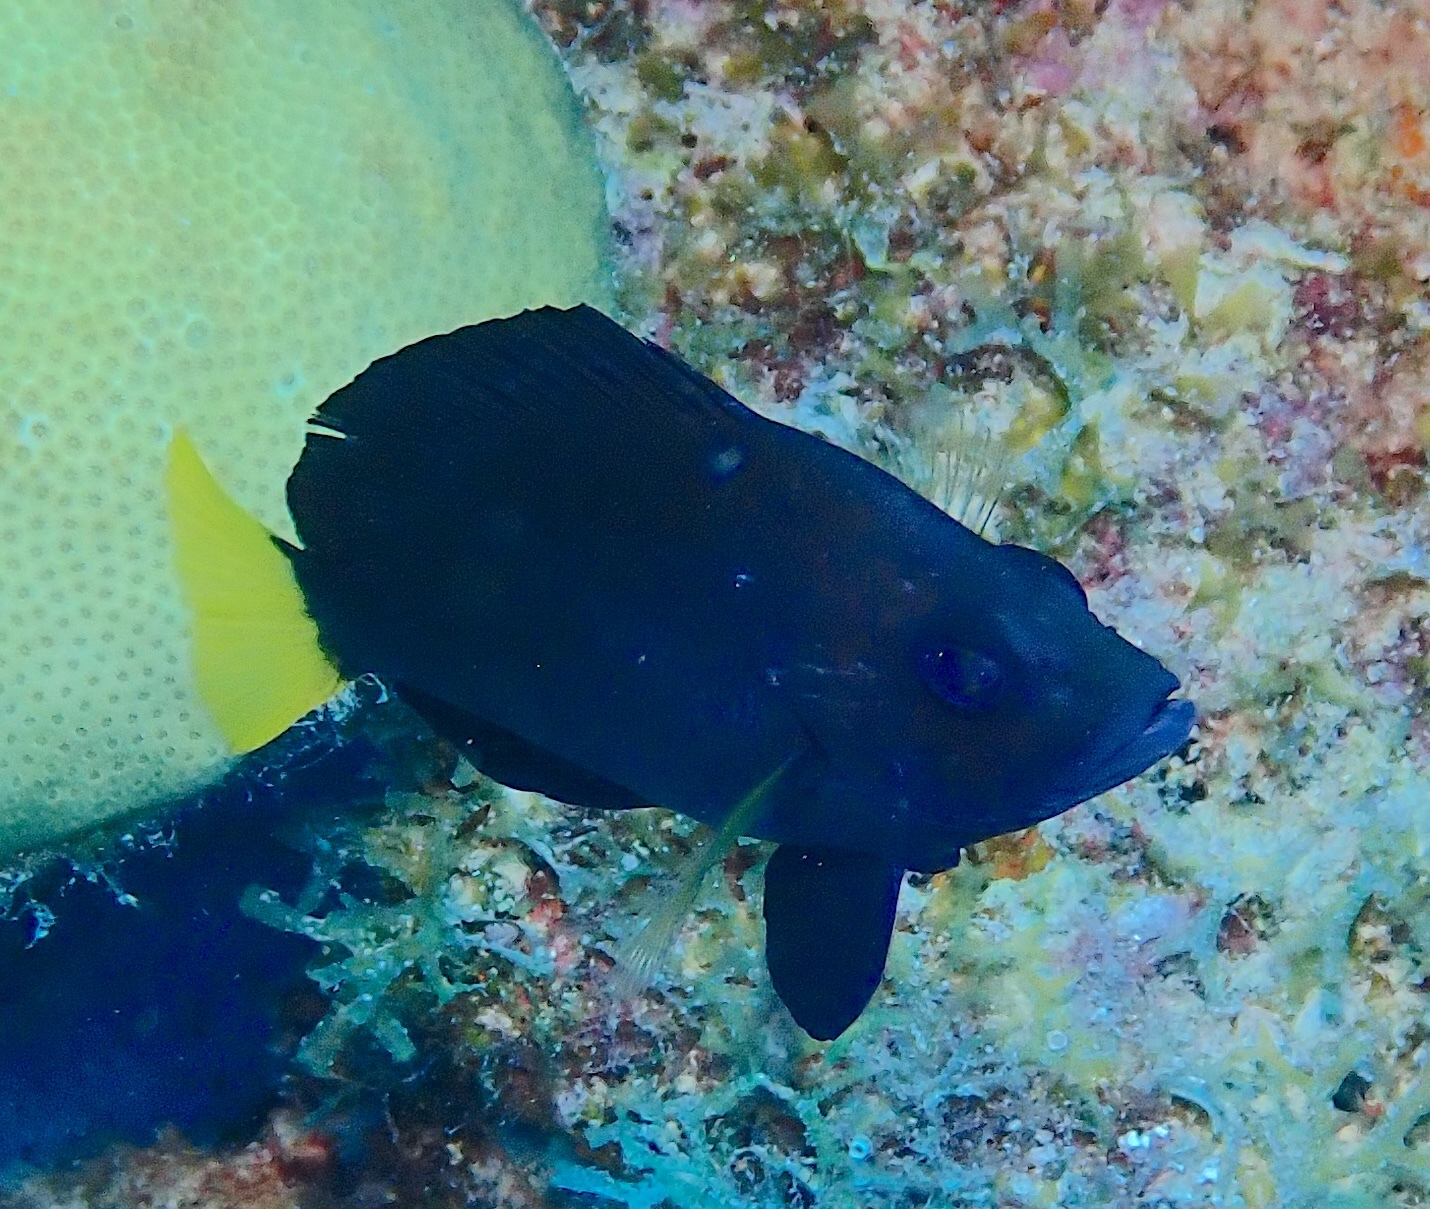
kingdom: Animalia
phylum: Chordata
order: Perciformes
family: Serranidae
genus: Hypoplectrus
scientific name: Hypoplectrus chlorurus
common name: Yellowtail hamlet
